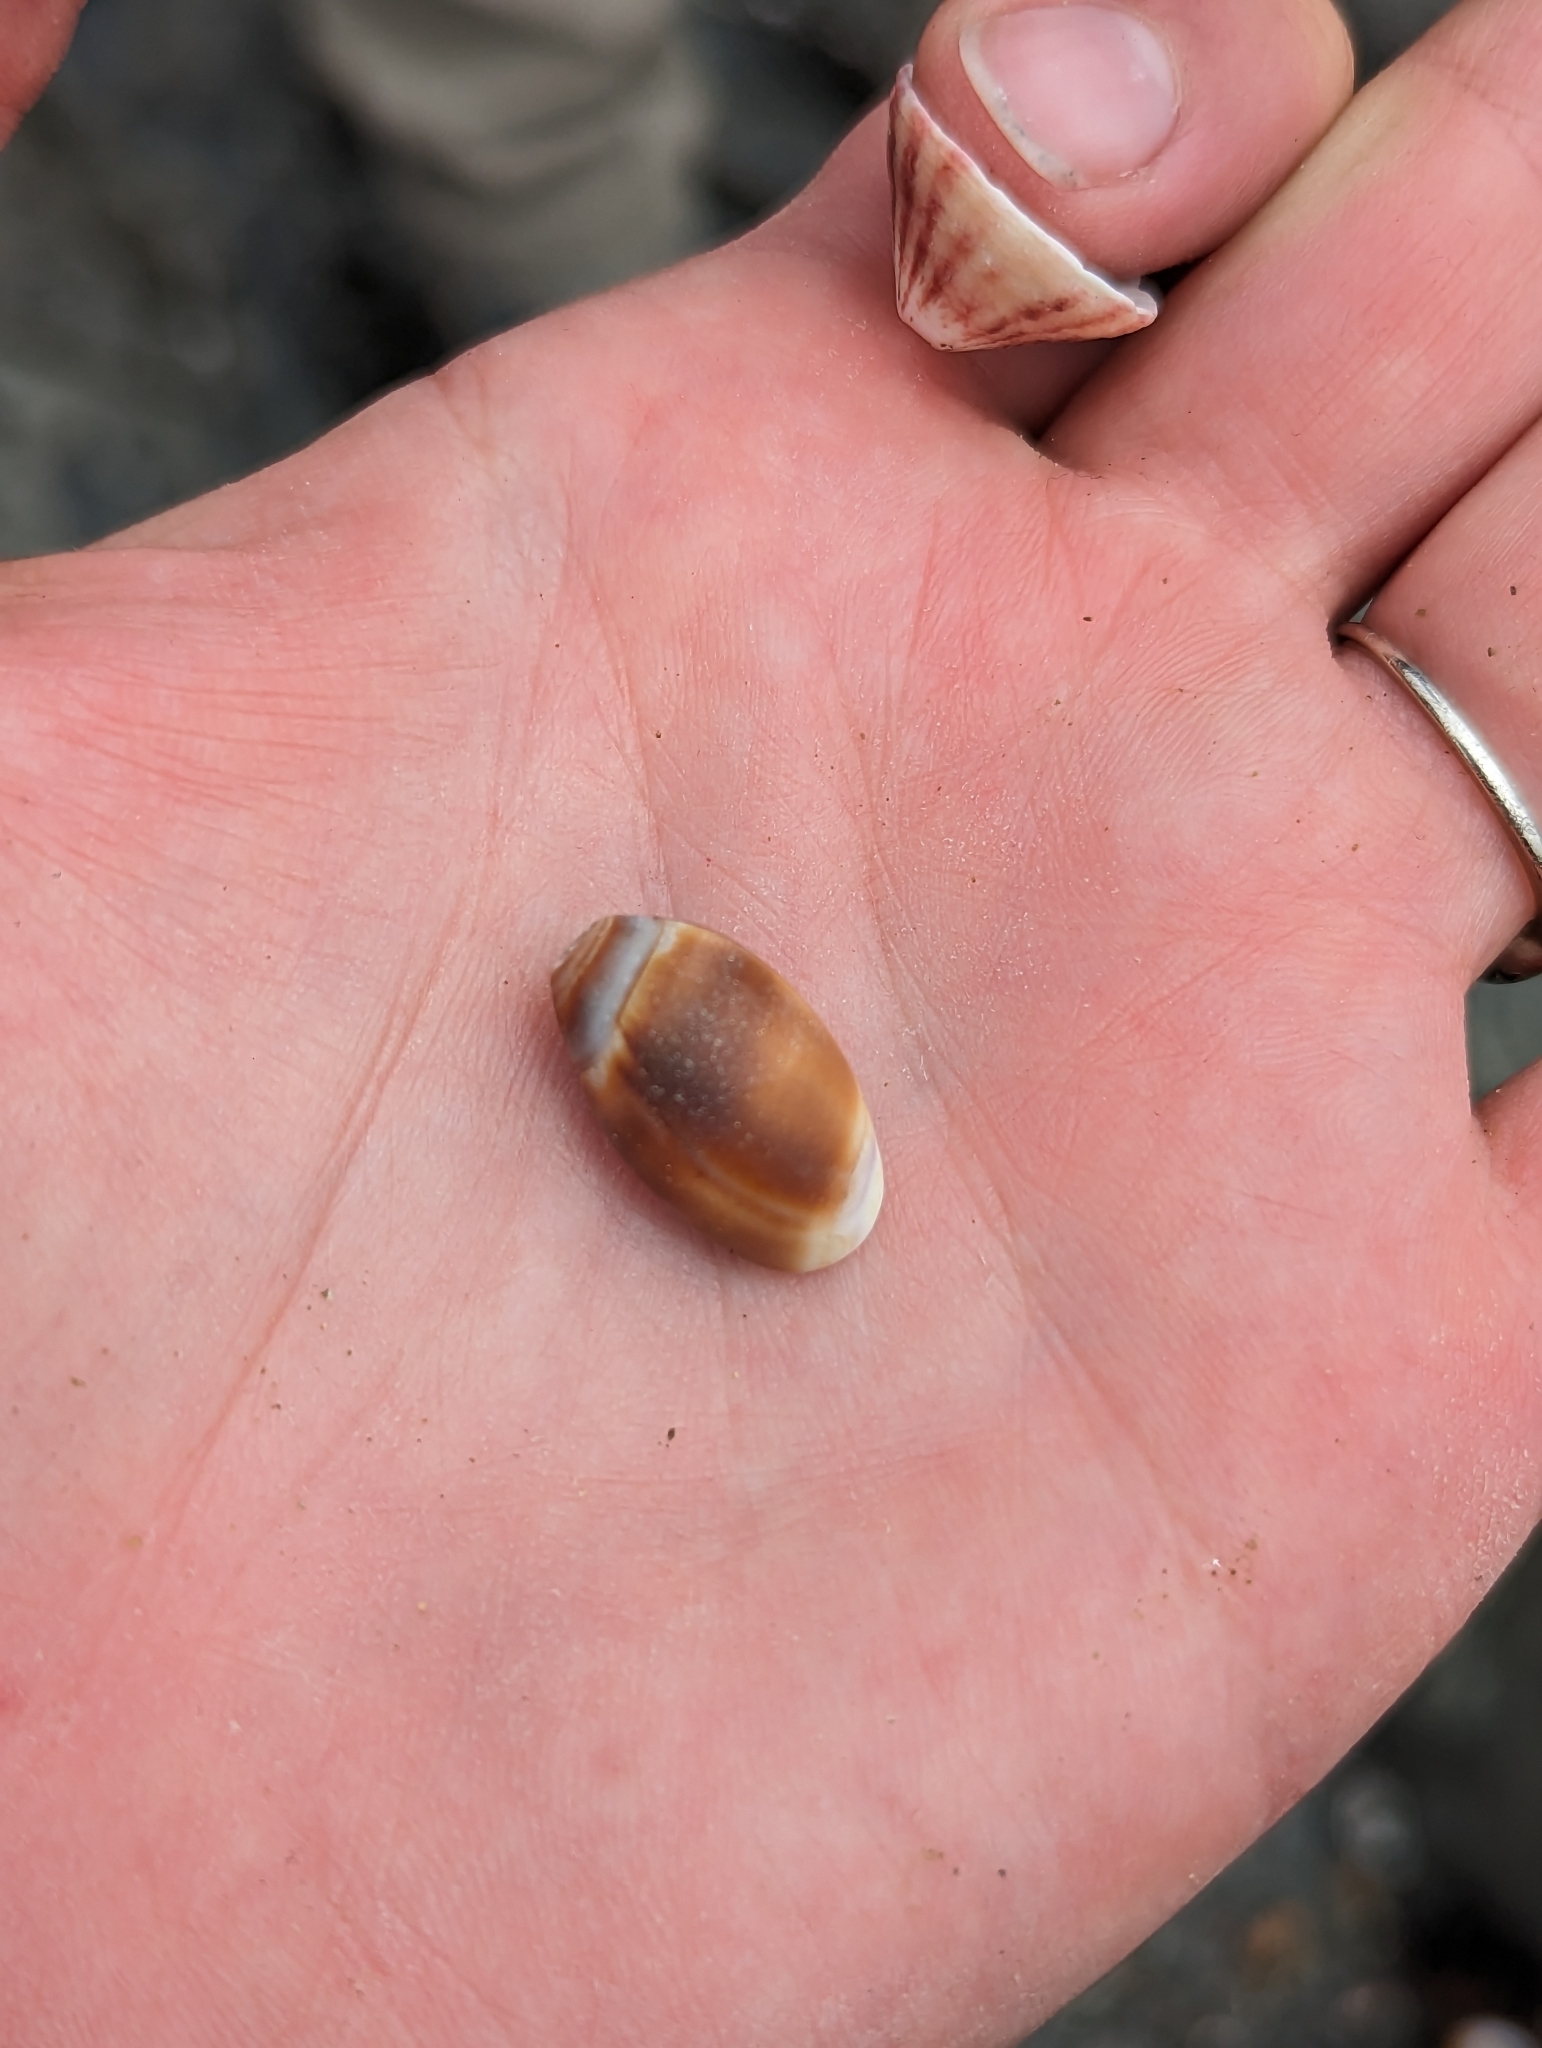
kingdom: Animalia
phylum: Mollusca
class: Gastropoda
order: Neogastropoda
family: Olividae
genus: Callianax
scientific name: Callianax biplicata
